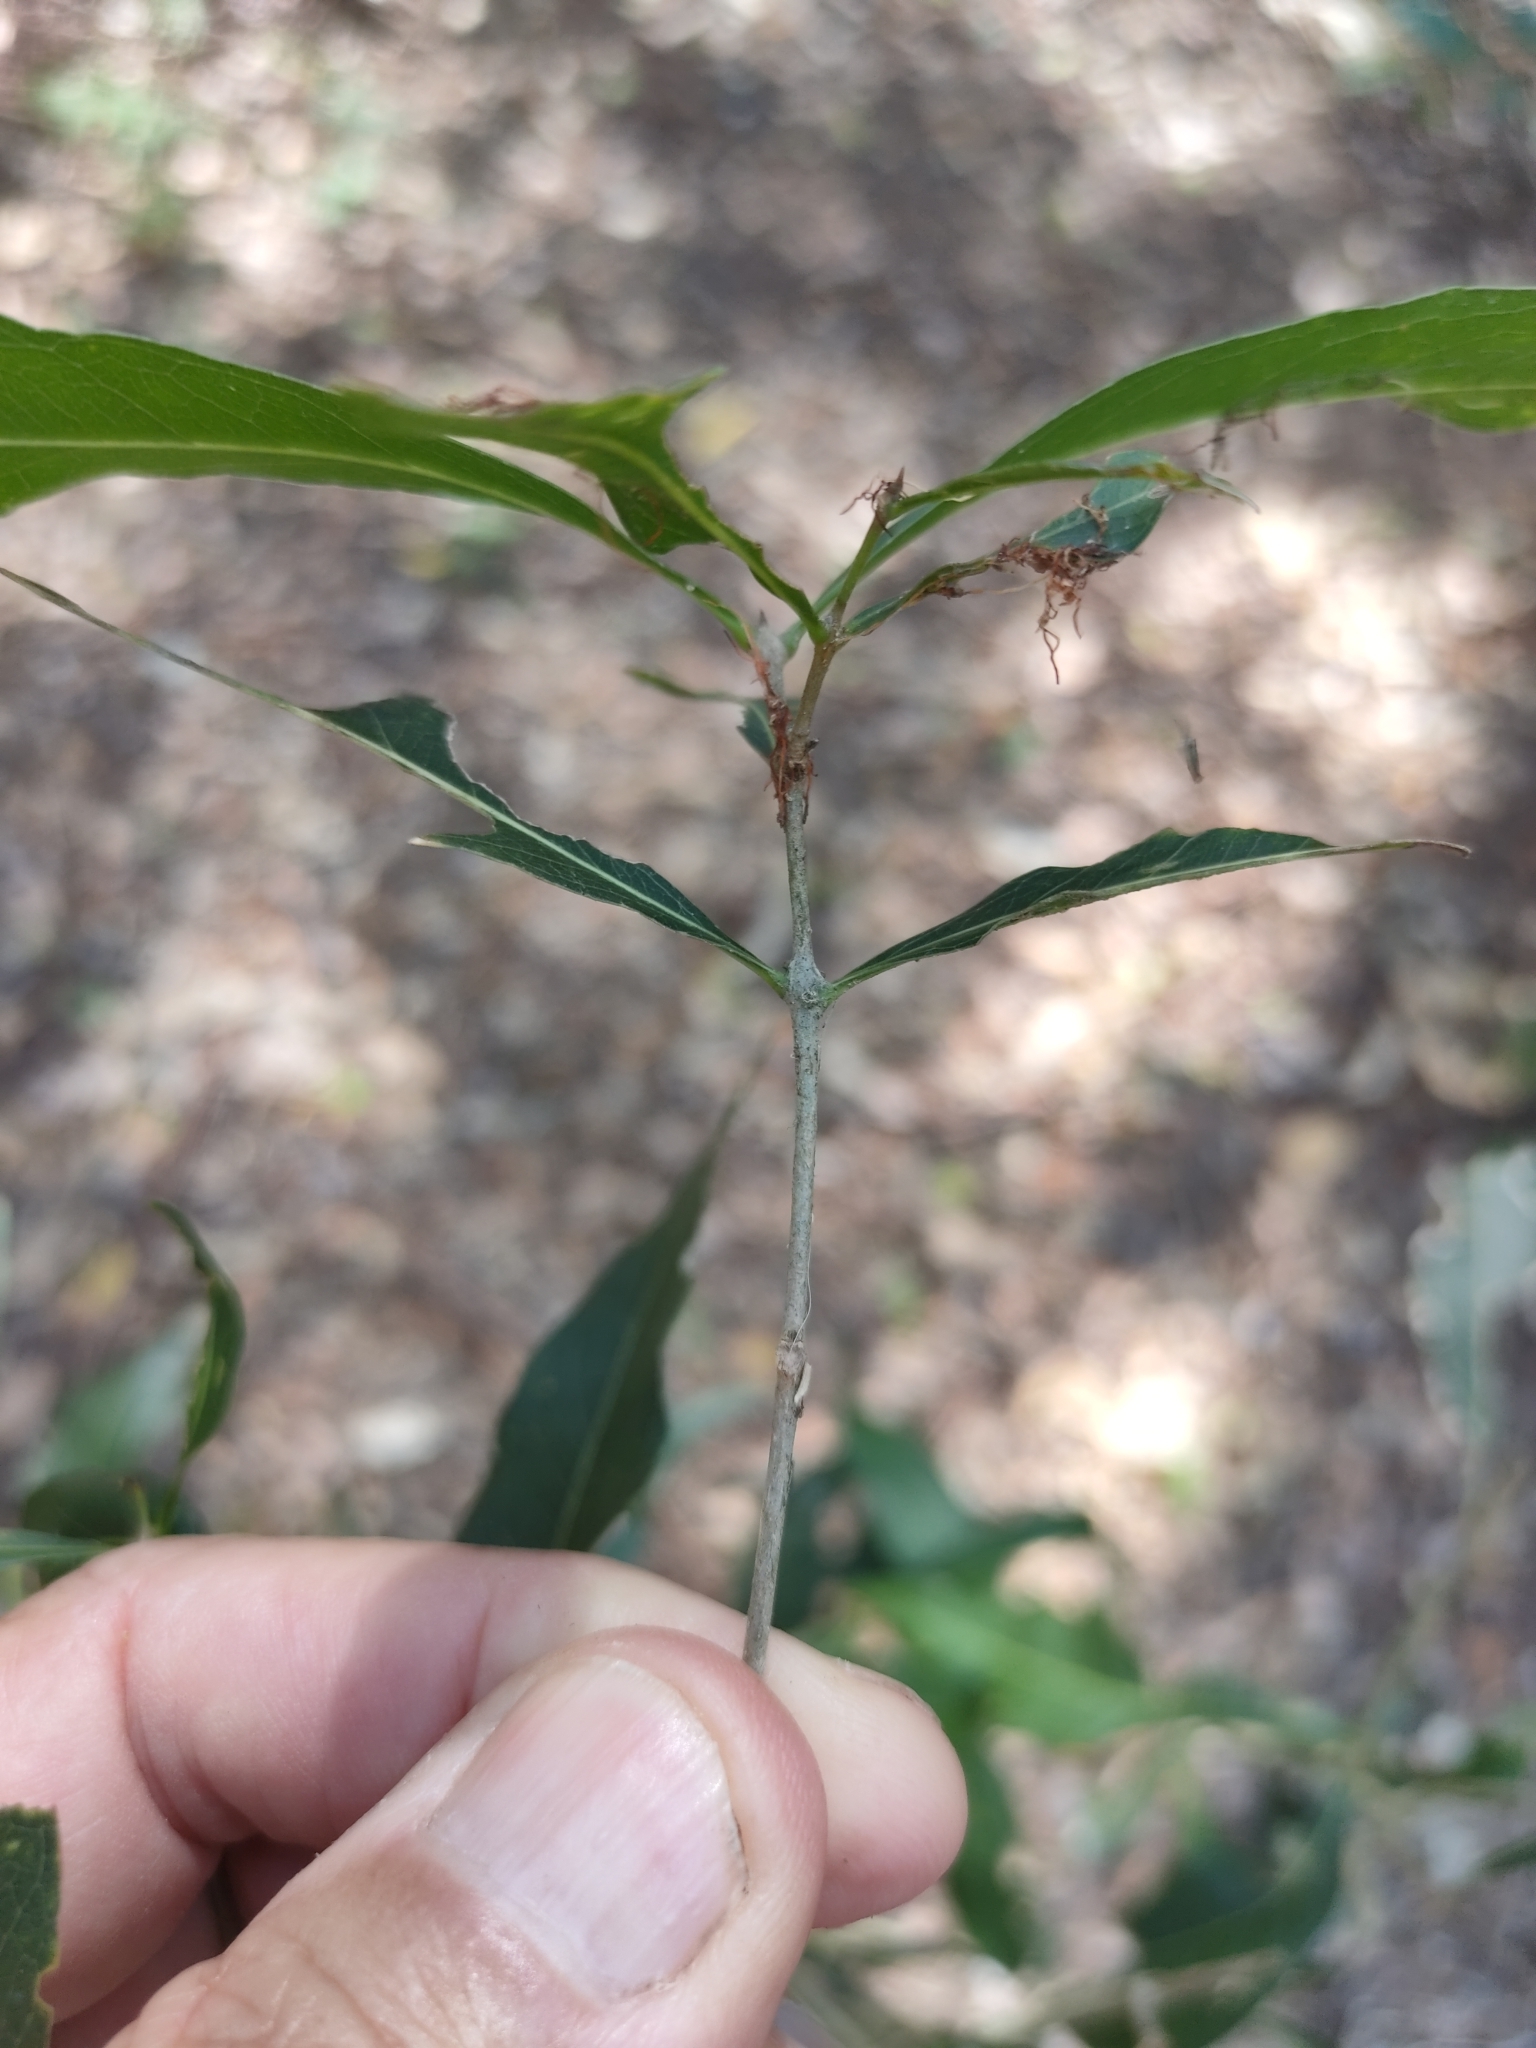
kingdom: Plantae
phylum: Tracheophyta
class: Magnoliopsida
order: Lamiales
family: Oleaceae
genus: Notelaea
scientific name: Notelaea punctata
